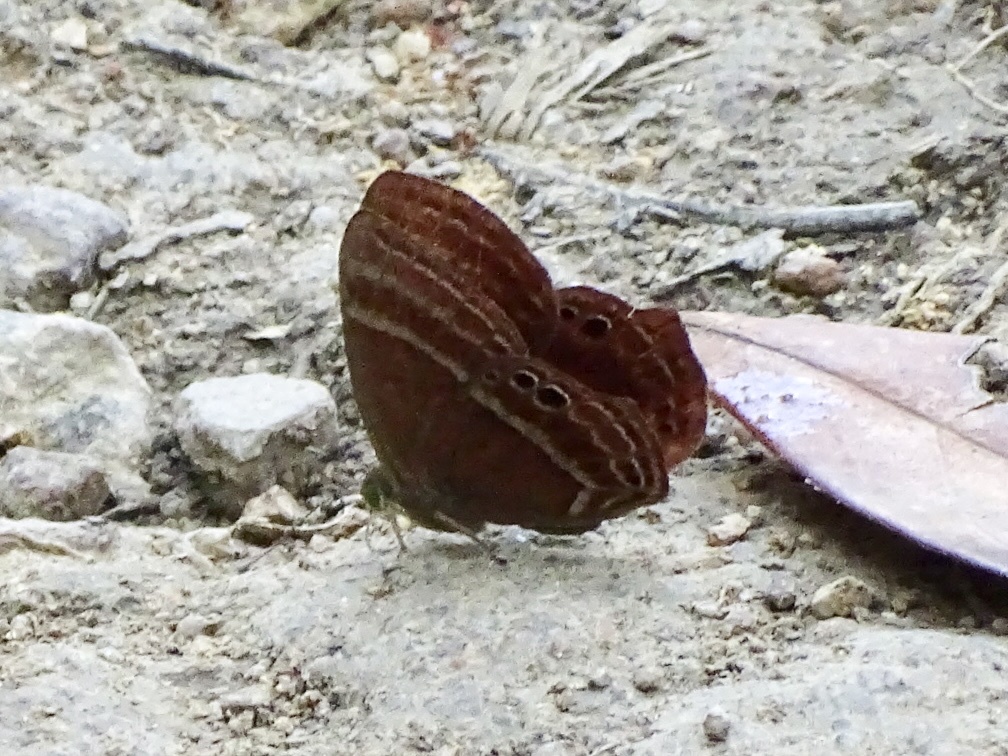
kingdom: Animalia
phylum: Arthropoda
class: Insecta
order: Lepidoptera
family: Lycaenidae
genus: Abisara
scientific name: Abisara echeria
